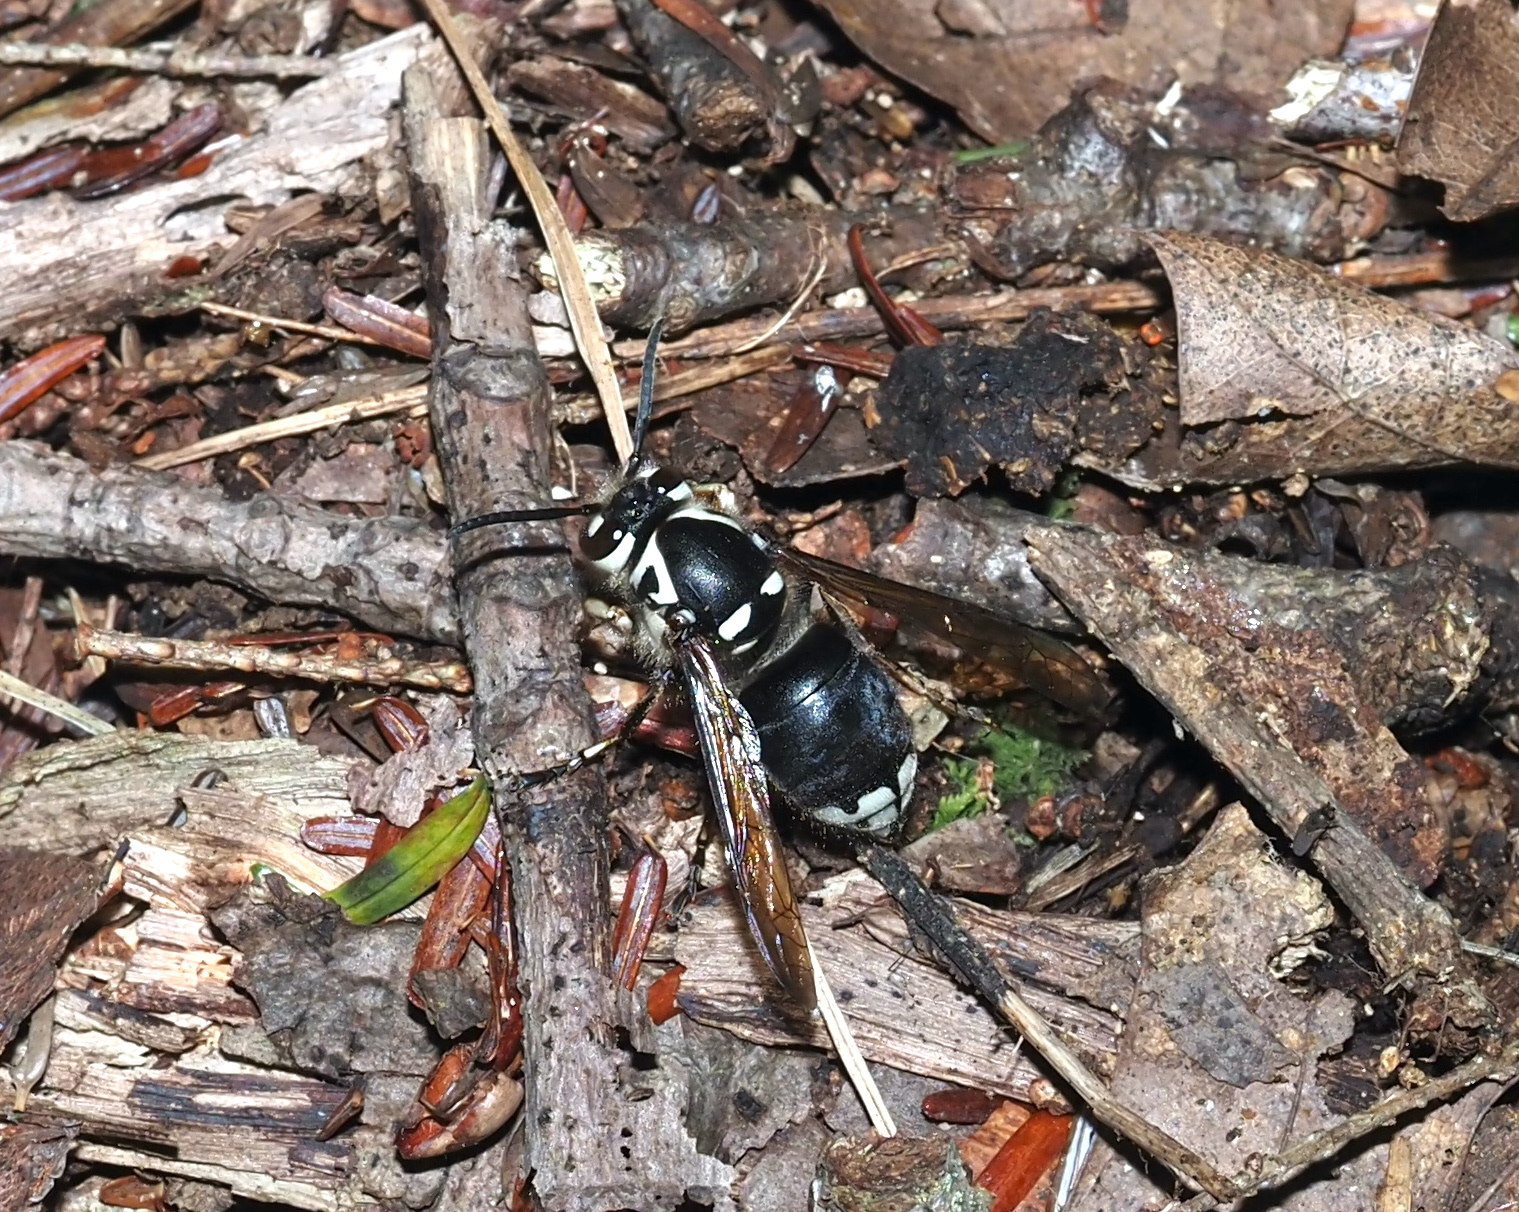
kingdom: Animalia
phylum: Arthropoda
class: Insecta
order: Hymenoptera
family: Vespidae
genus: Dolichovespula
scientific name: Dolichovespula maculata
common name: Bald-faced hornet
